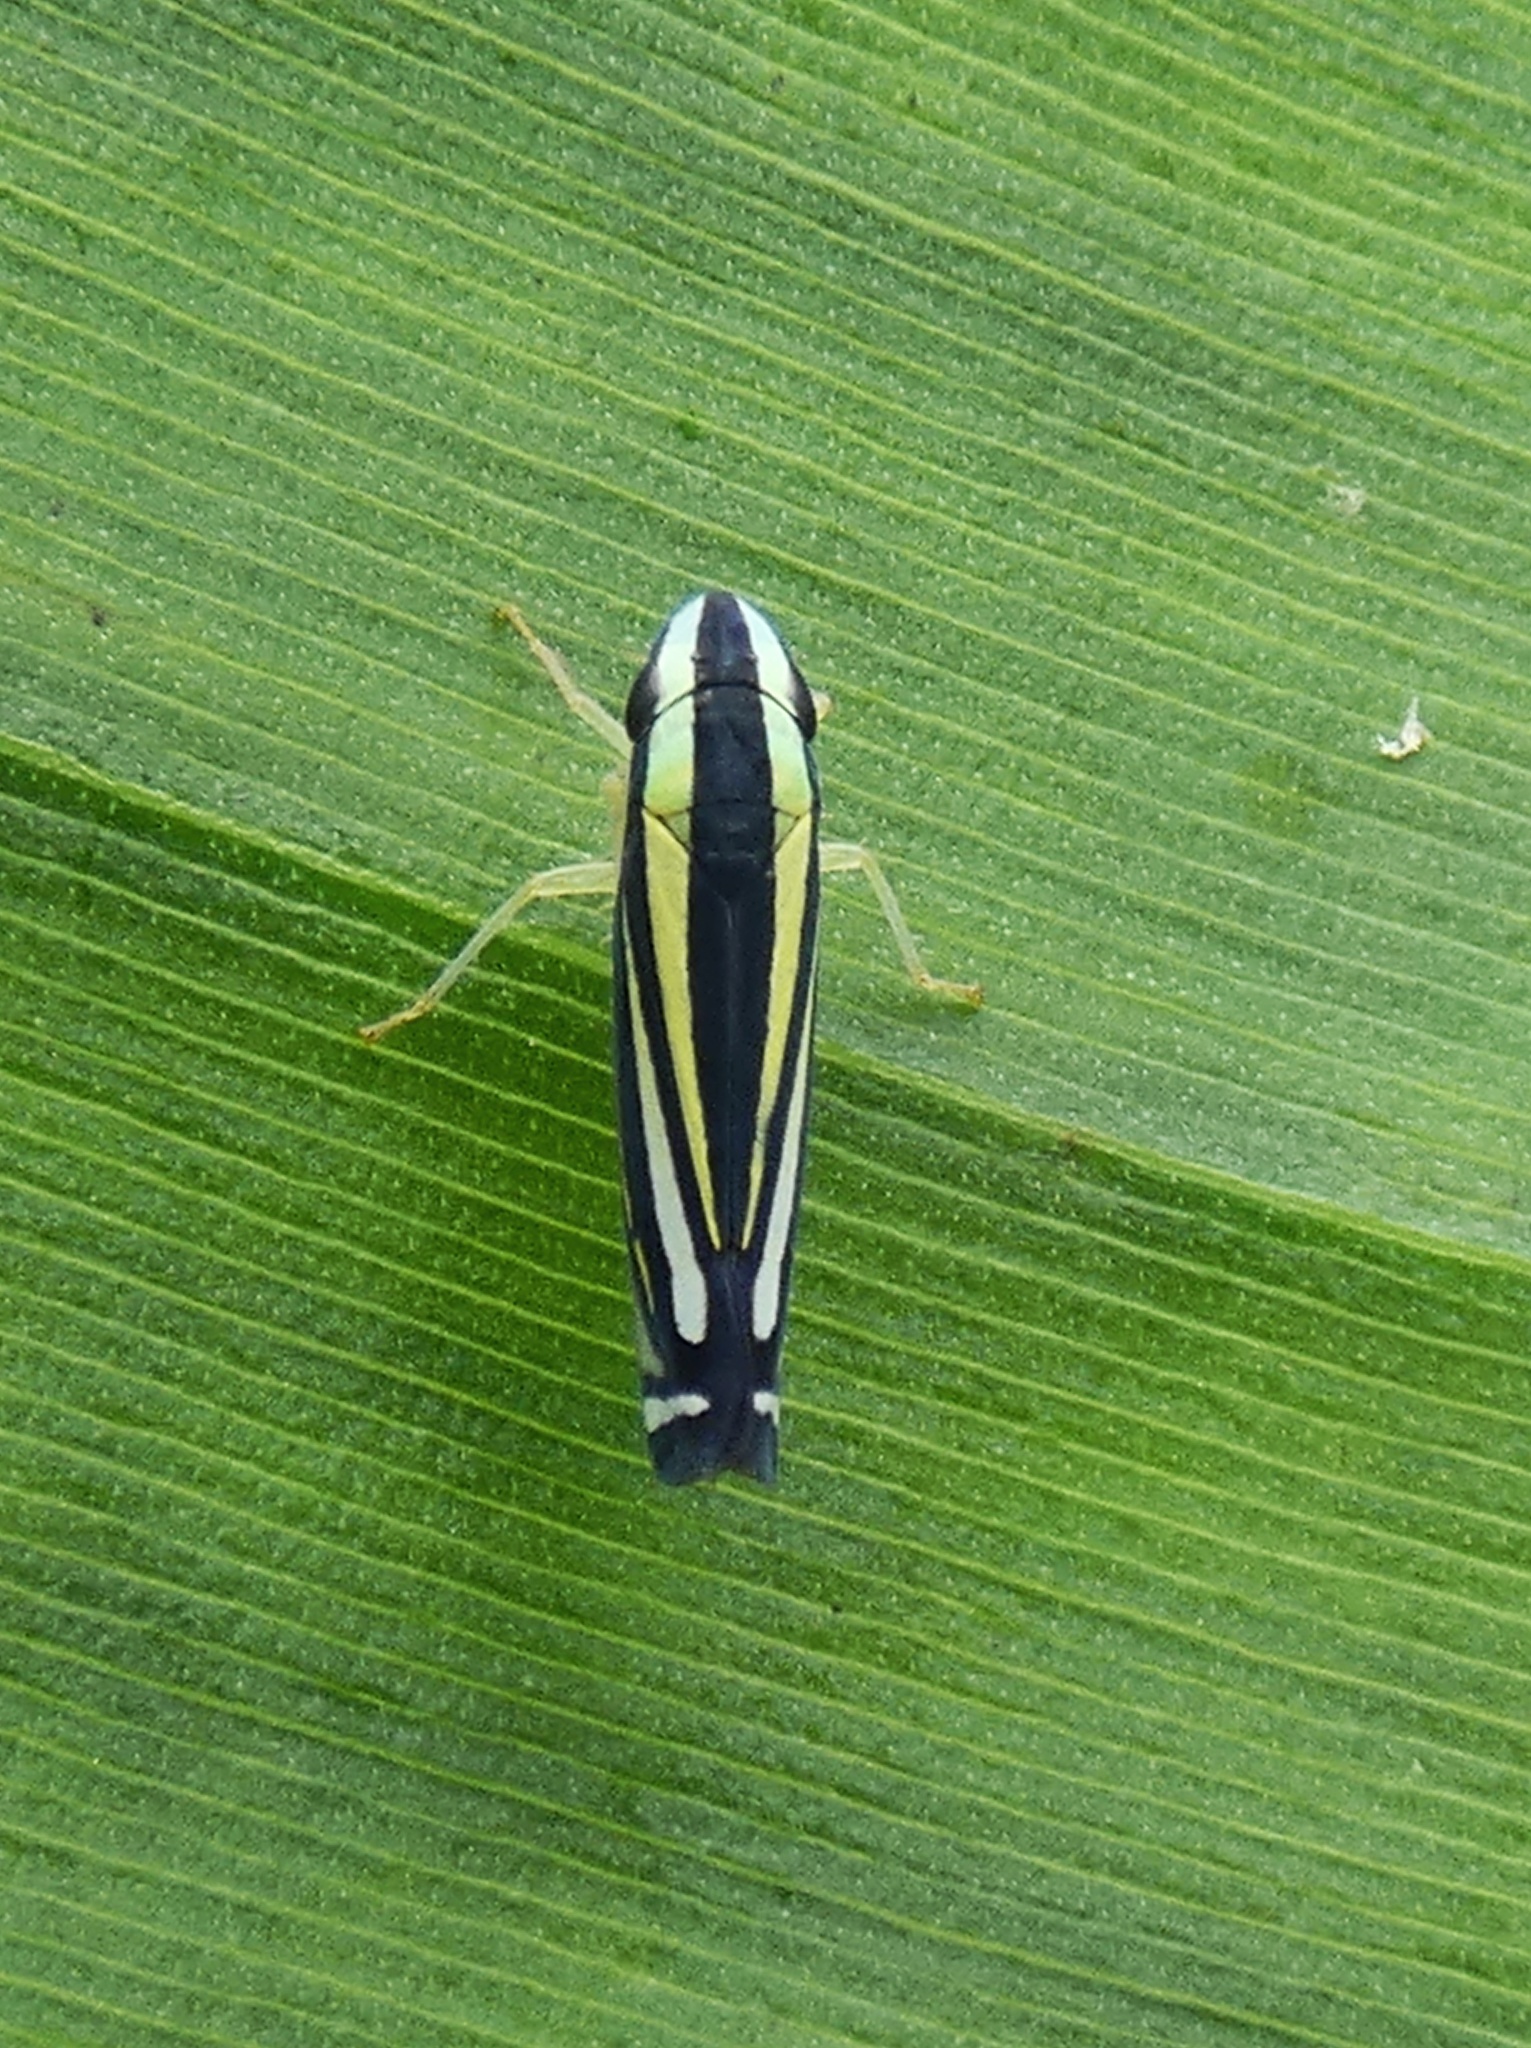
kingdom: Animalia
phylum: Arthropoda
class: Insecta
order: Hemiptera
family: Cicadellidae
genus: Fusigonalia
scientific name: Fusigonalia lativittata
